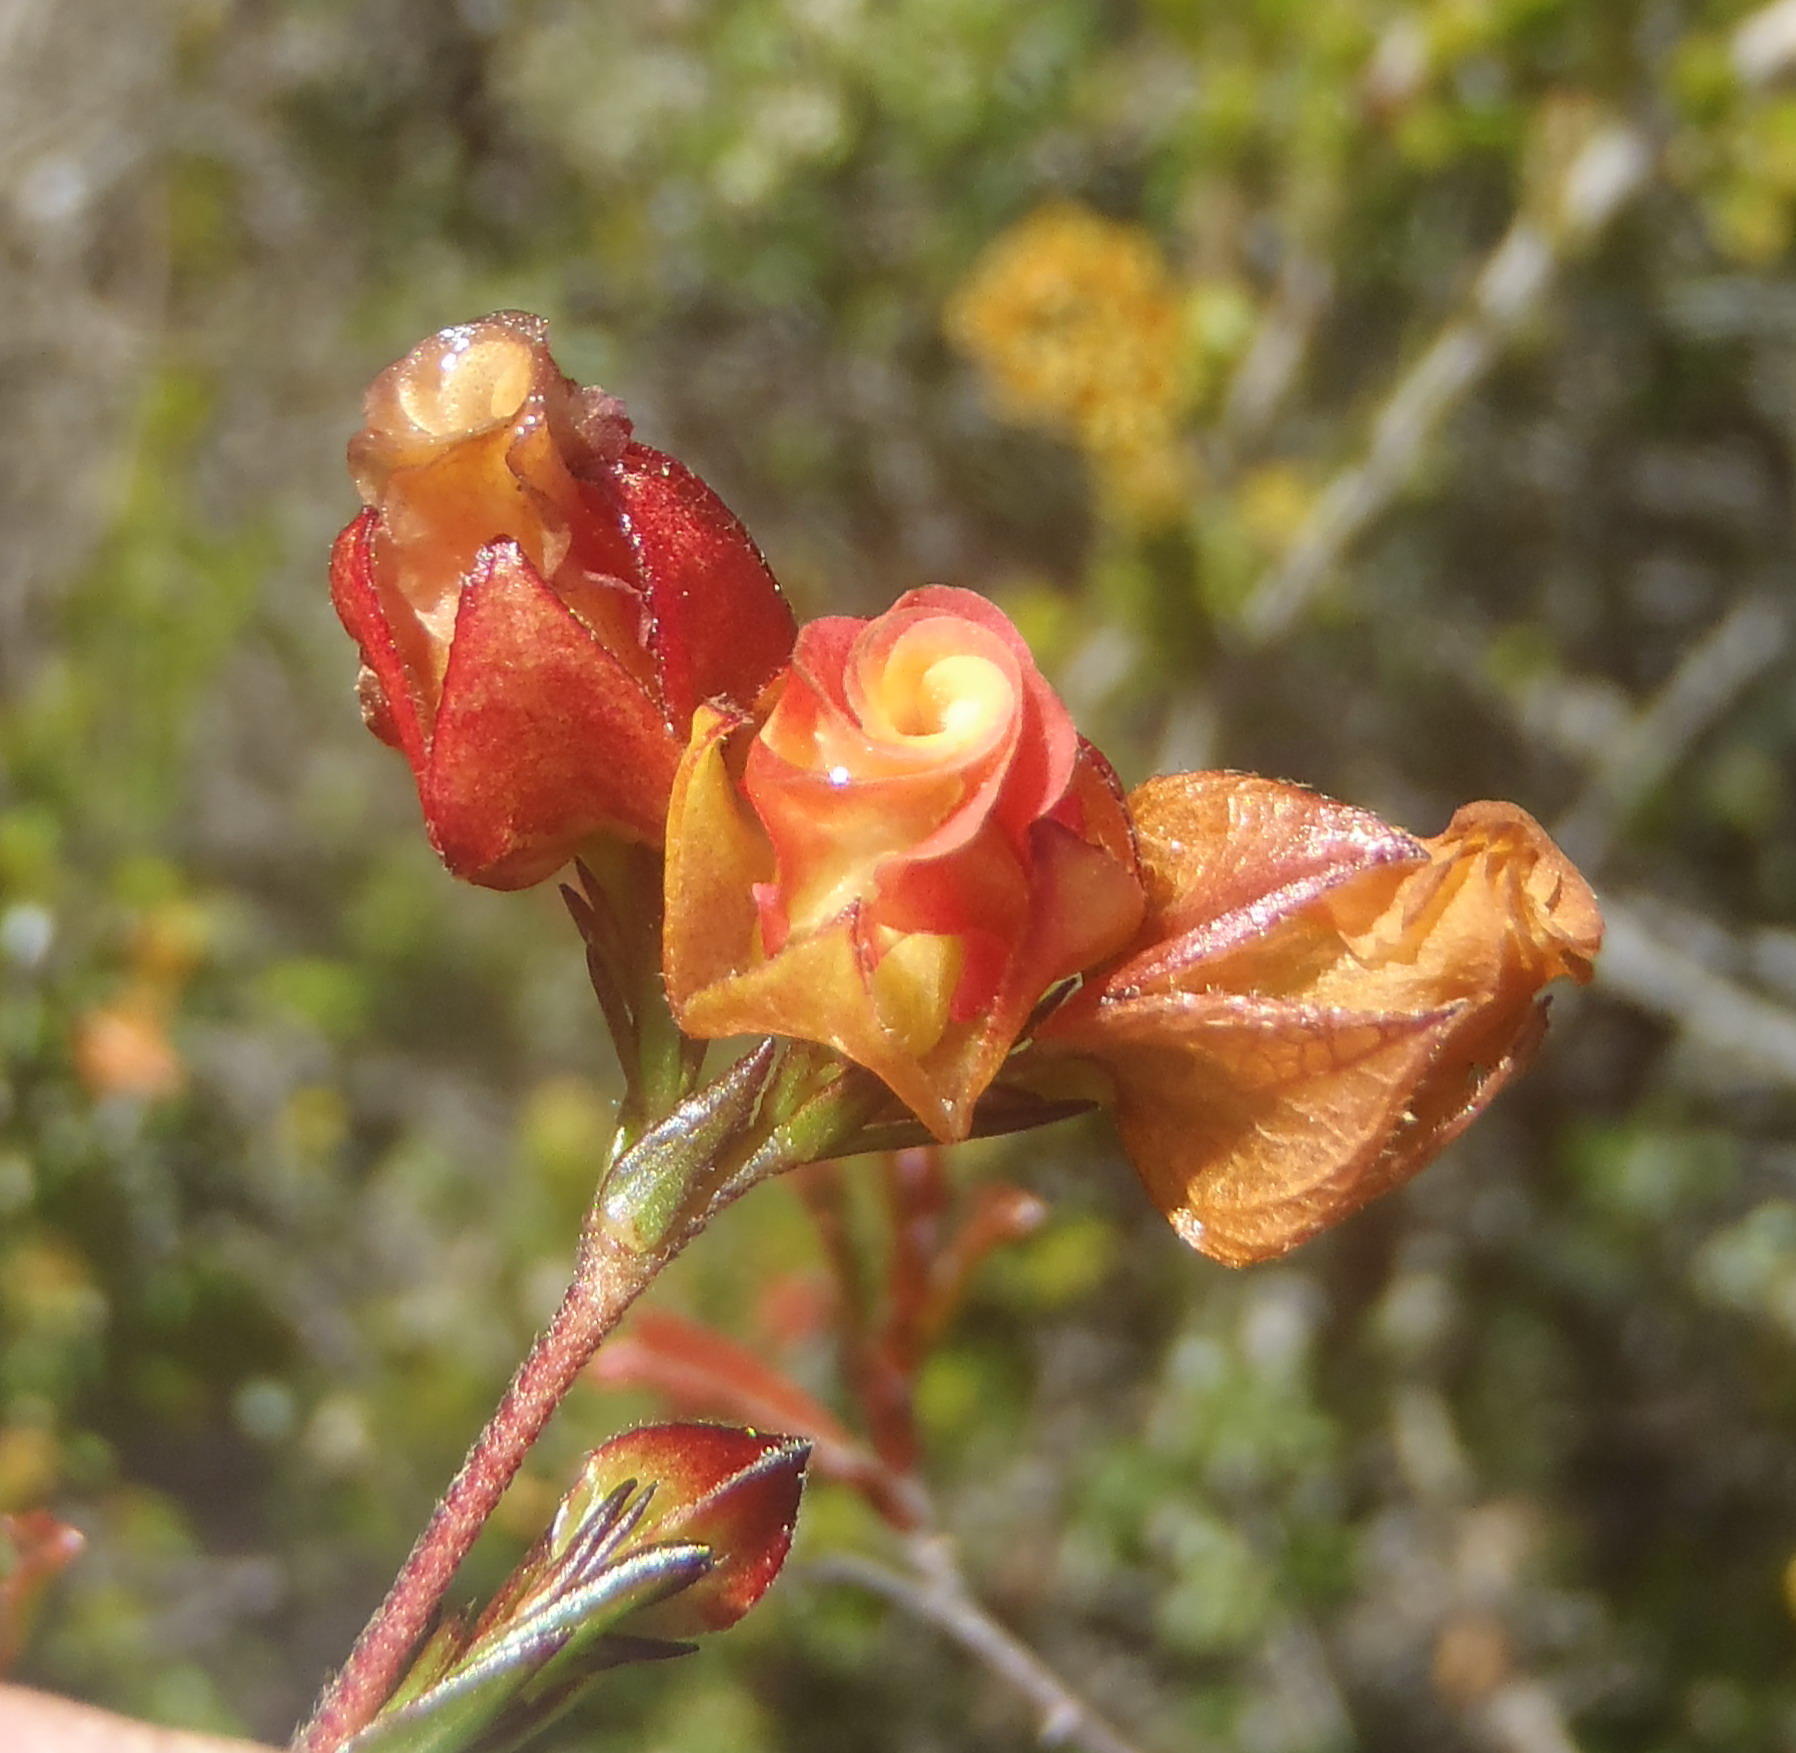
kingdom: Plantae
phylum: Tracheophyta
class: Magnoliopsida
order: Malvales
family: Malvaceae
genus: Hermannia
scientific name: Hermannia angularis
